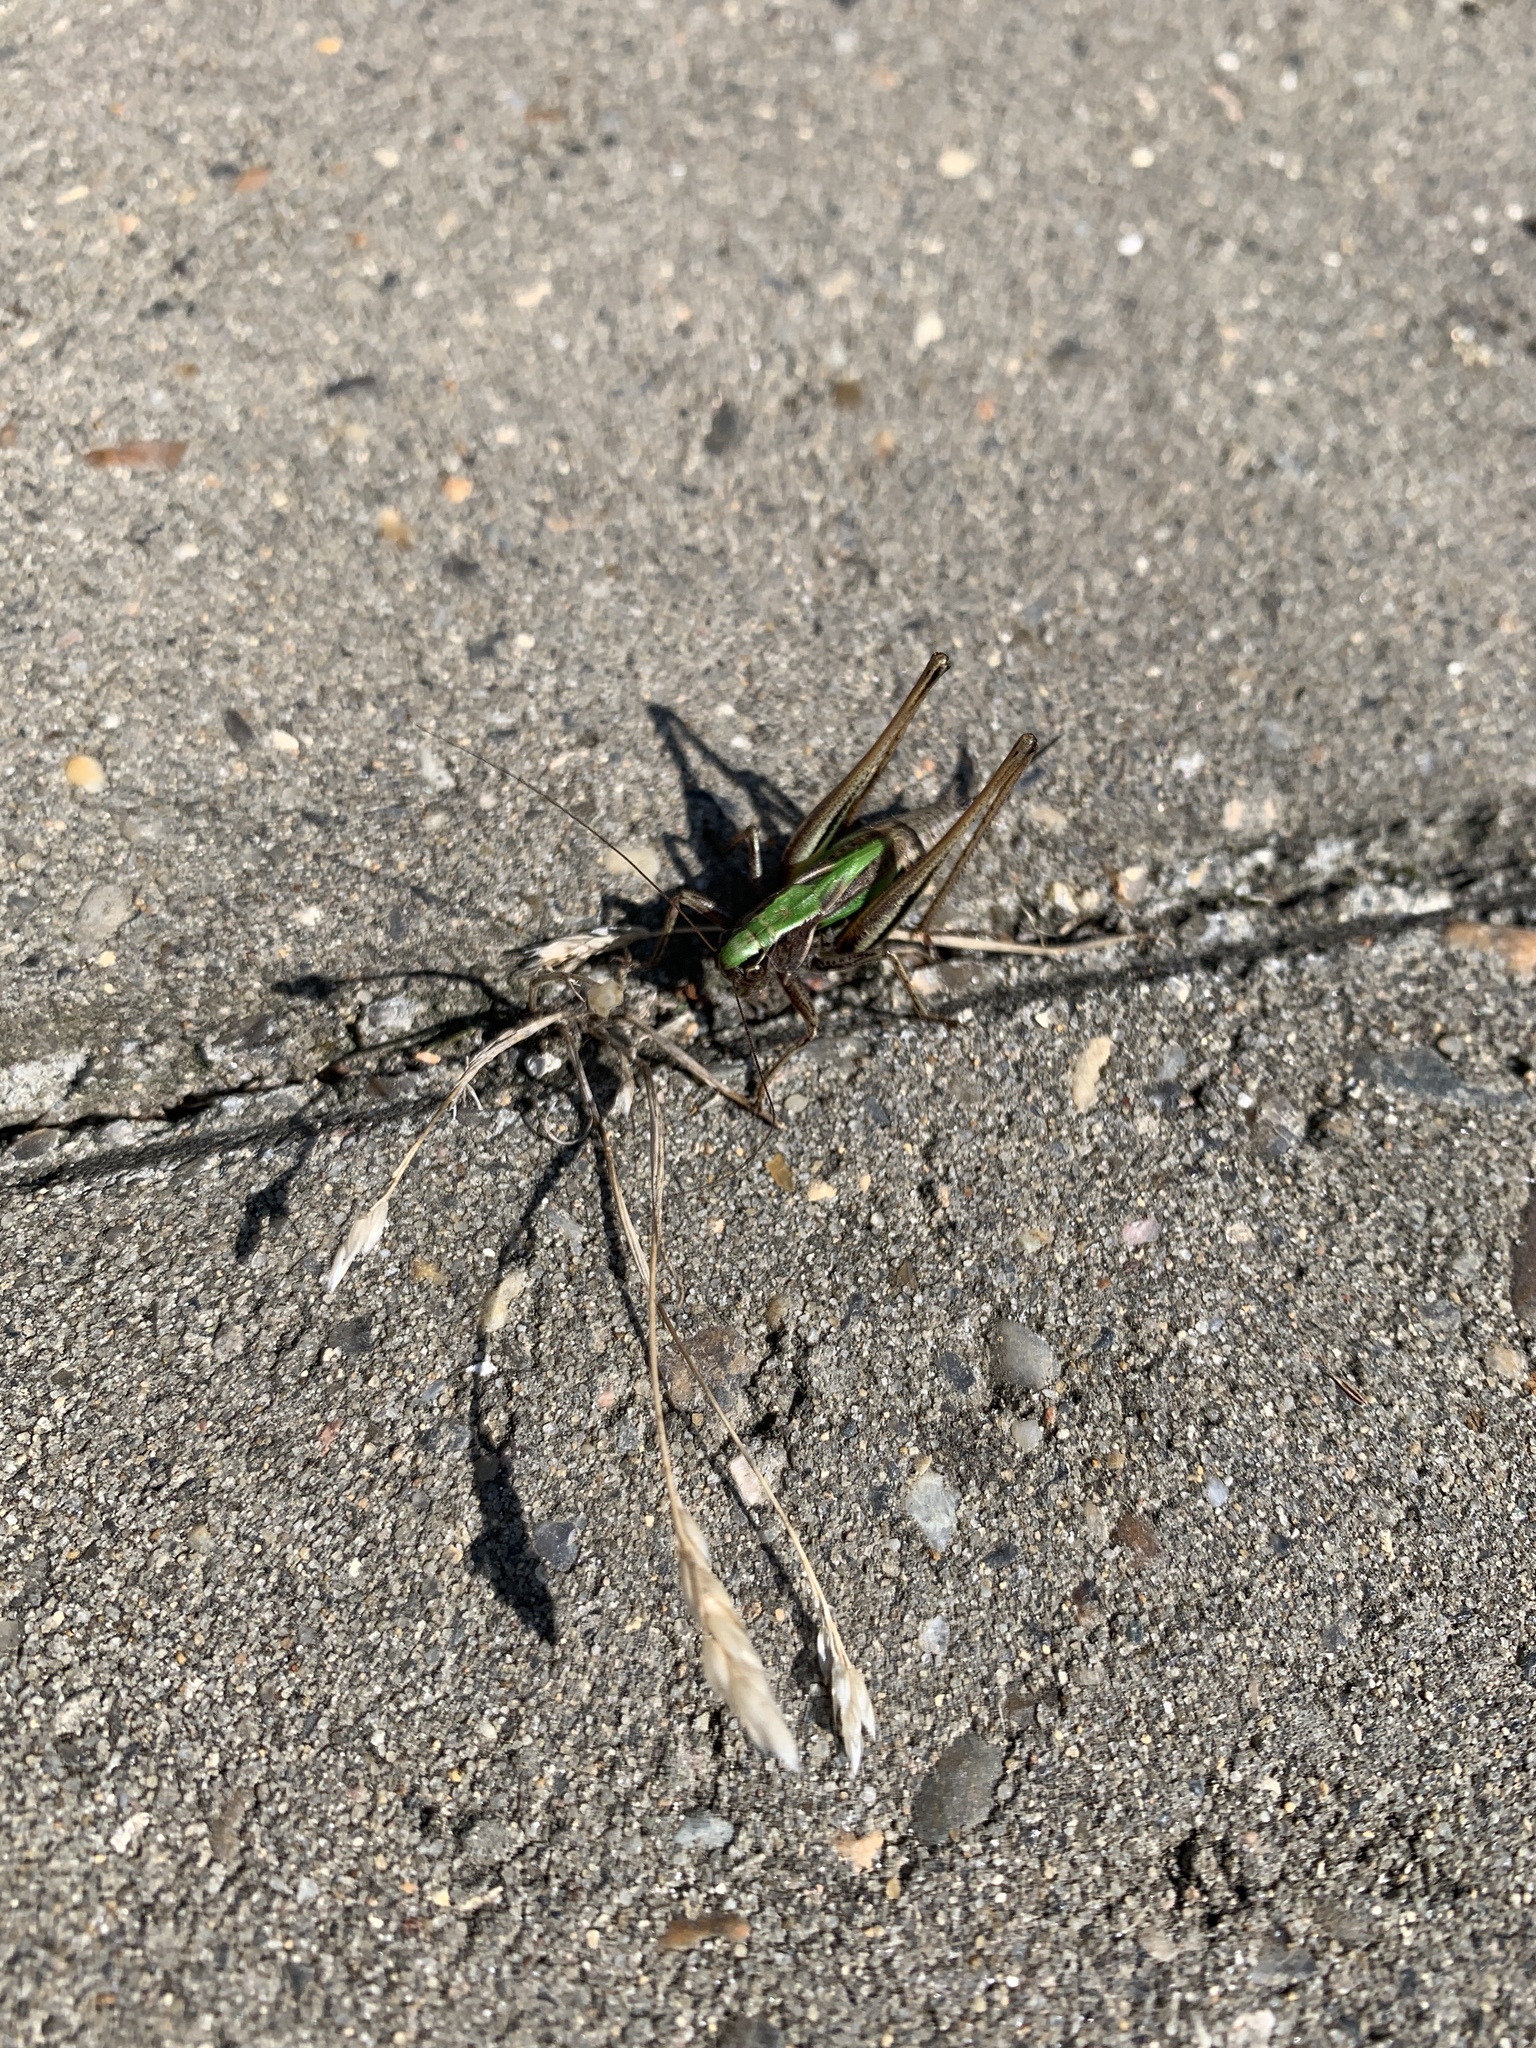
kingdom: Animalia
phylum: Arthropoda
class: Insecta
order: Orthoptera
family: Tettigoniidae
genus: Metrioptera
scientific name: Metrioptera brachyptera
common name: Bog bush-cricket
